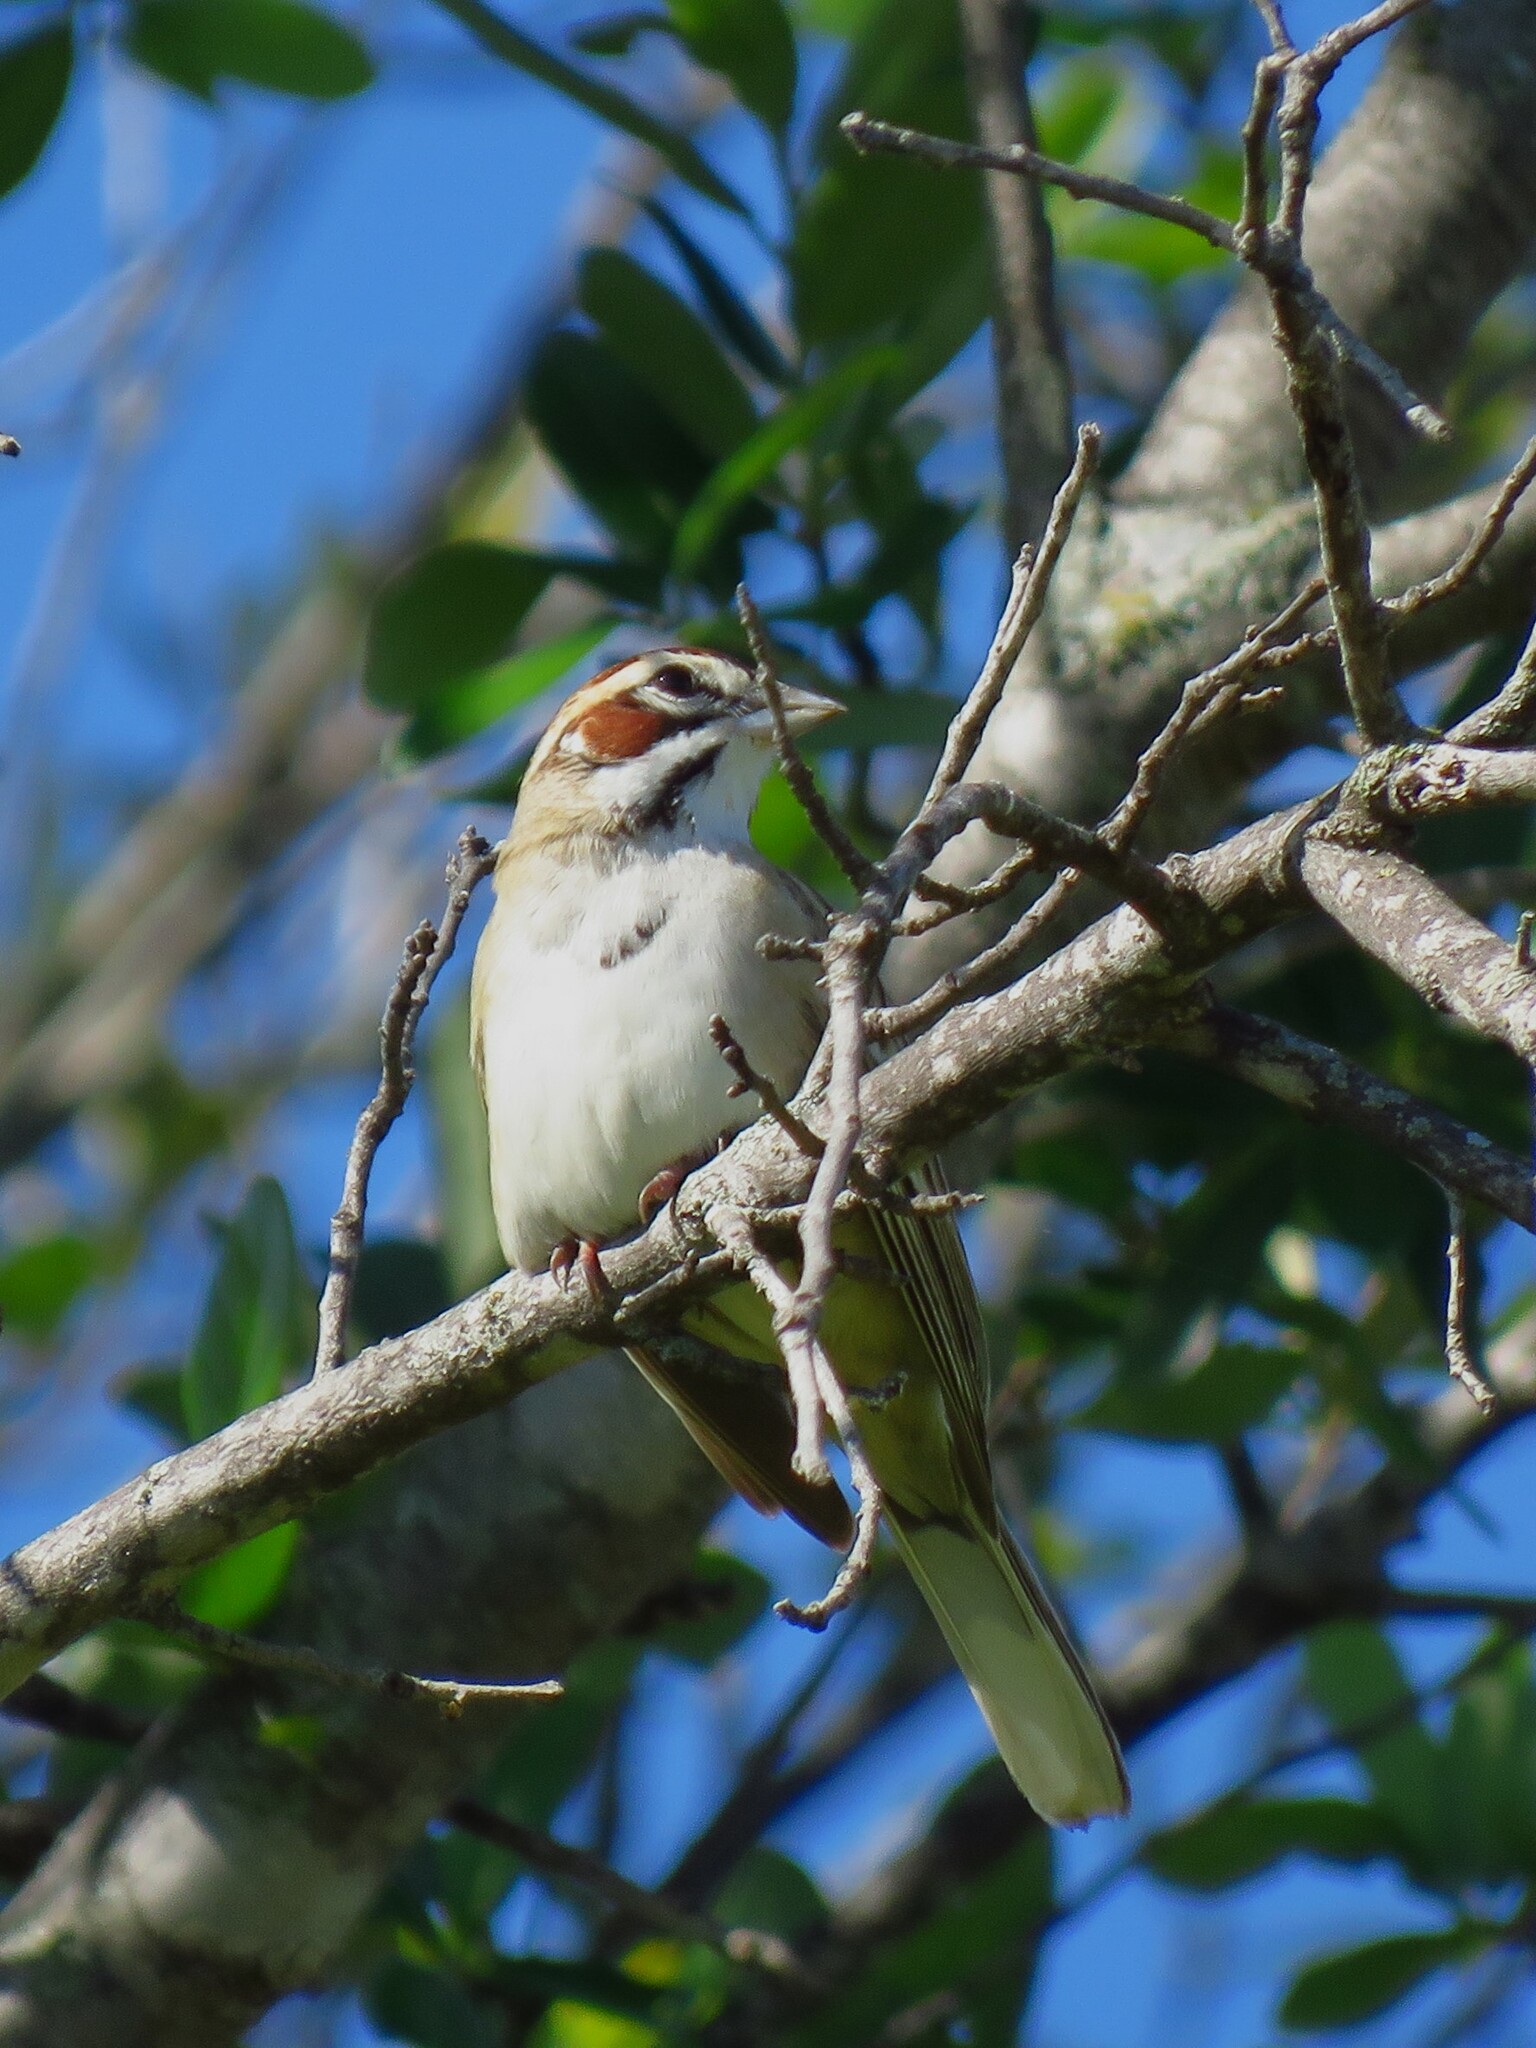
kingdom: Animalia
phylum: Chordata
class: Aves
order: Passeriformes
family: Passerellidae
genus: Chondestes
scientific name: Chondestes grammacus
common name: Lark sparrow
